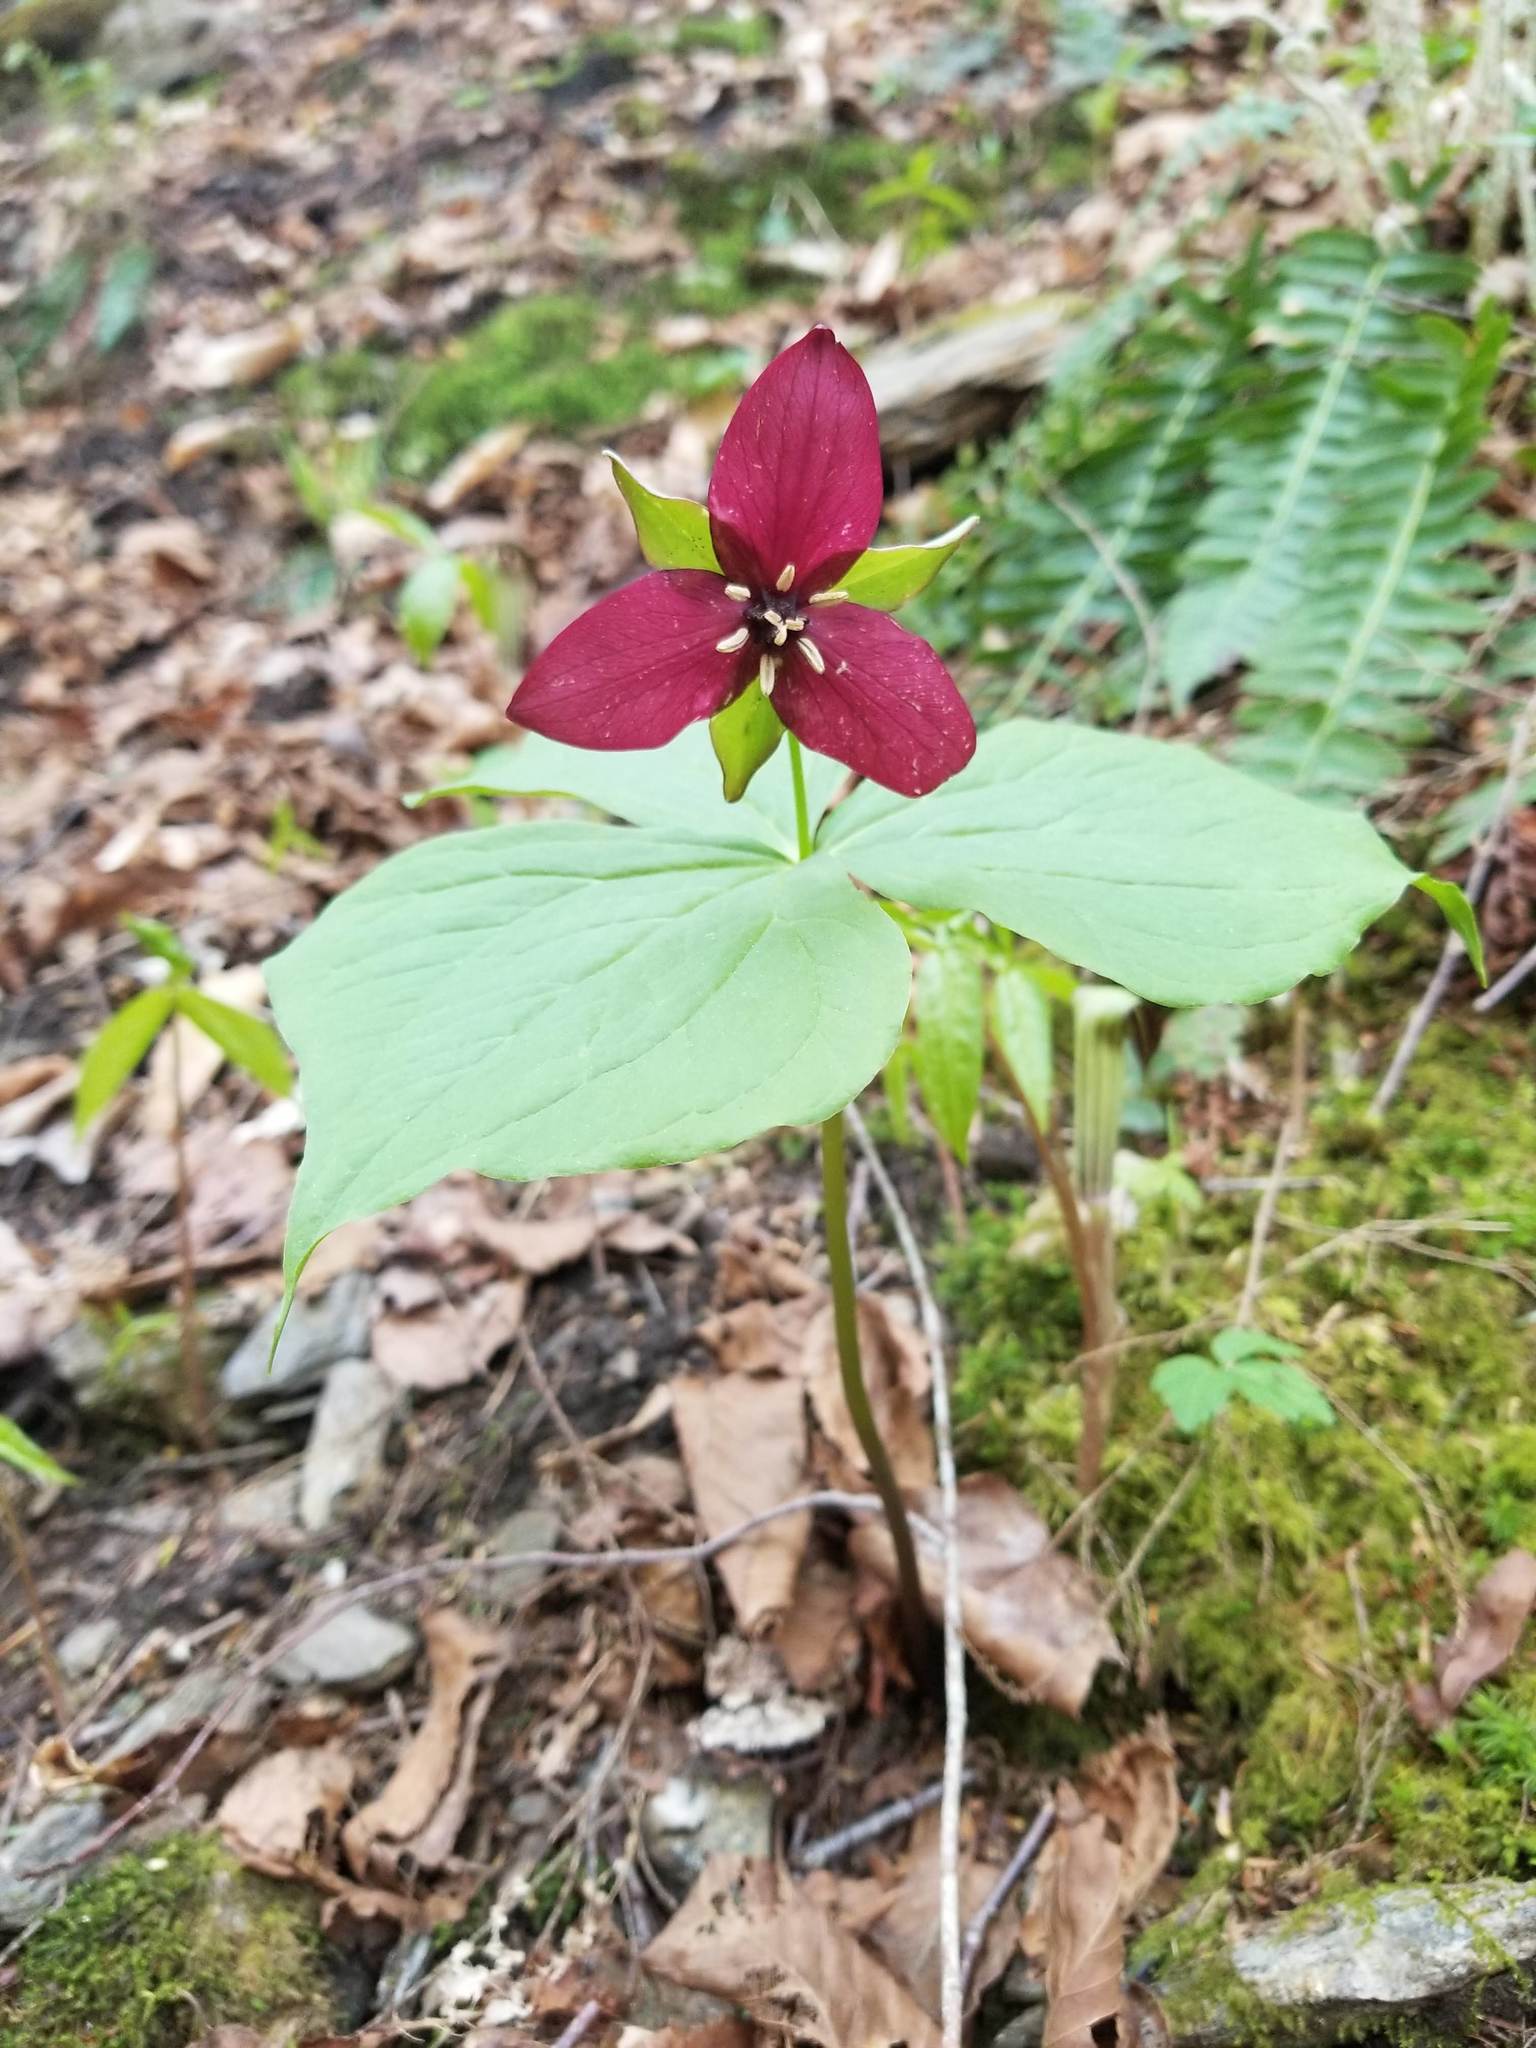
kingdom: Plantae
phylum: Tracheophyta
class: Liliopsida
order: Liliales
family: Melanthiaceae
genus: Trillium
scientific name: Trillium erectum
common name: Purple trillium
